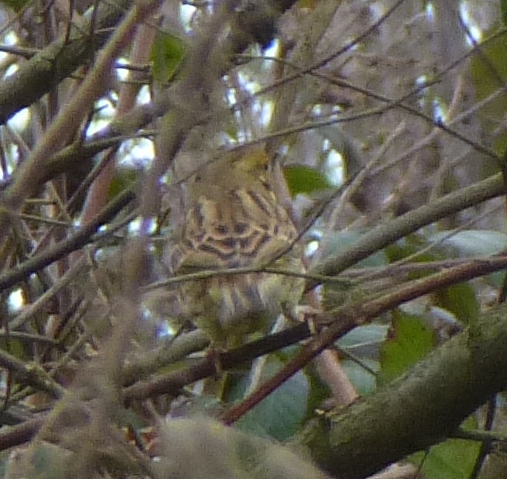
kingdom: Animalia
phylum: Chordata
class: Aves
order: Passeriformes
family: Emberizidae
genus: Emberiza
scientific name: Emberiza citrinella
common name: Yellowhammer
